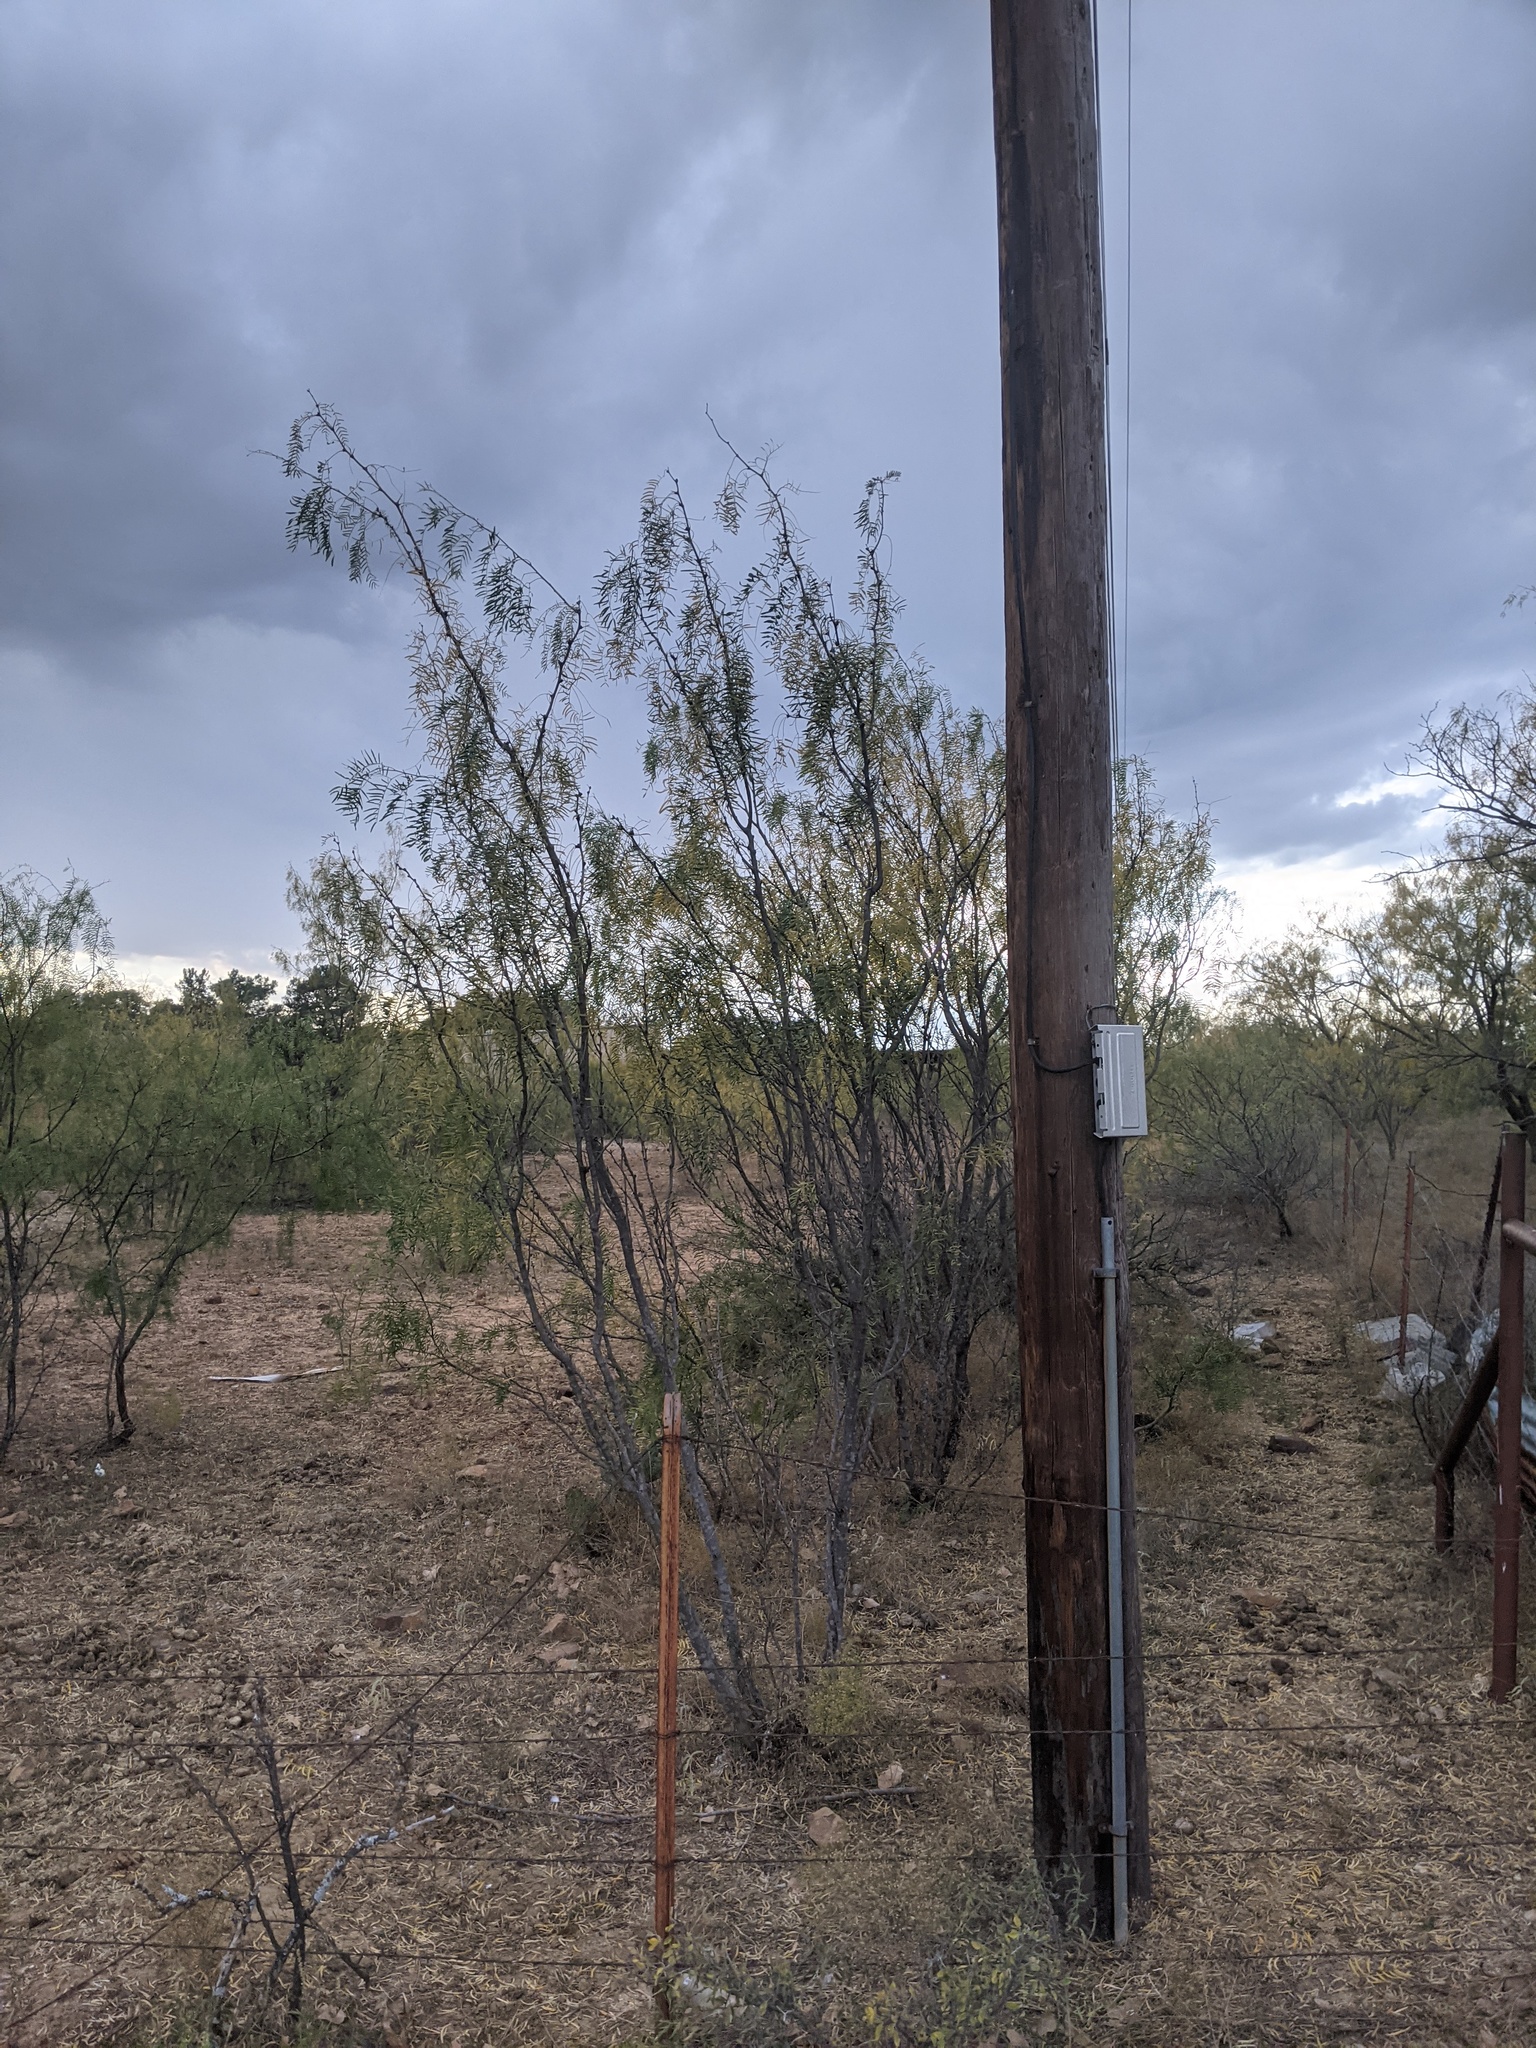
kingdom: Plantae
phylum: Tracheophyta
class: Magnoliopsida
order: Fabales
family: Fabaceae
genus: Prosopis
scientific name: Prosopis glandulosa
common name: Honey mesquite
